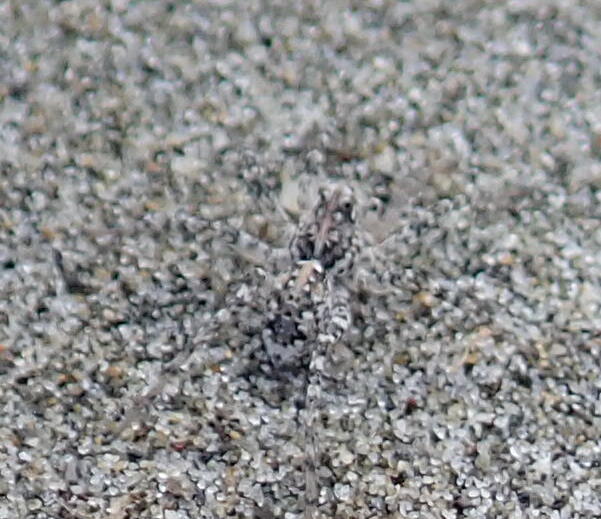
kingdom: Animalia
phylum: Arthropoda
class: Arachnida
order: Araneae
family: Lycosidae
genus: Anoteropsis
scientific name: Anoteropsis litoralis
